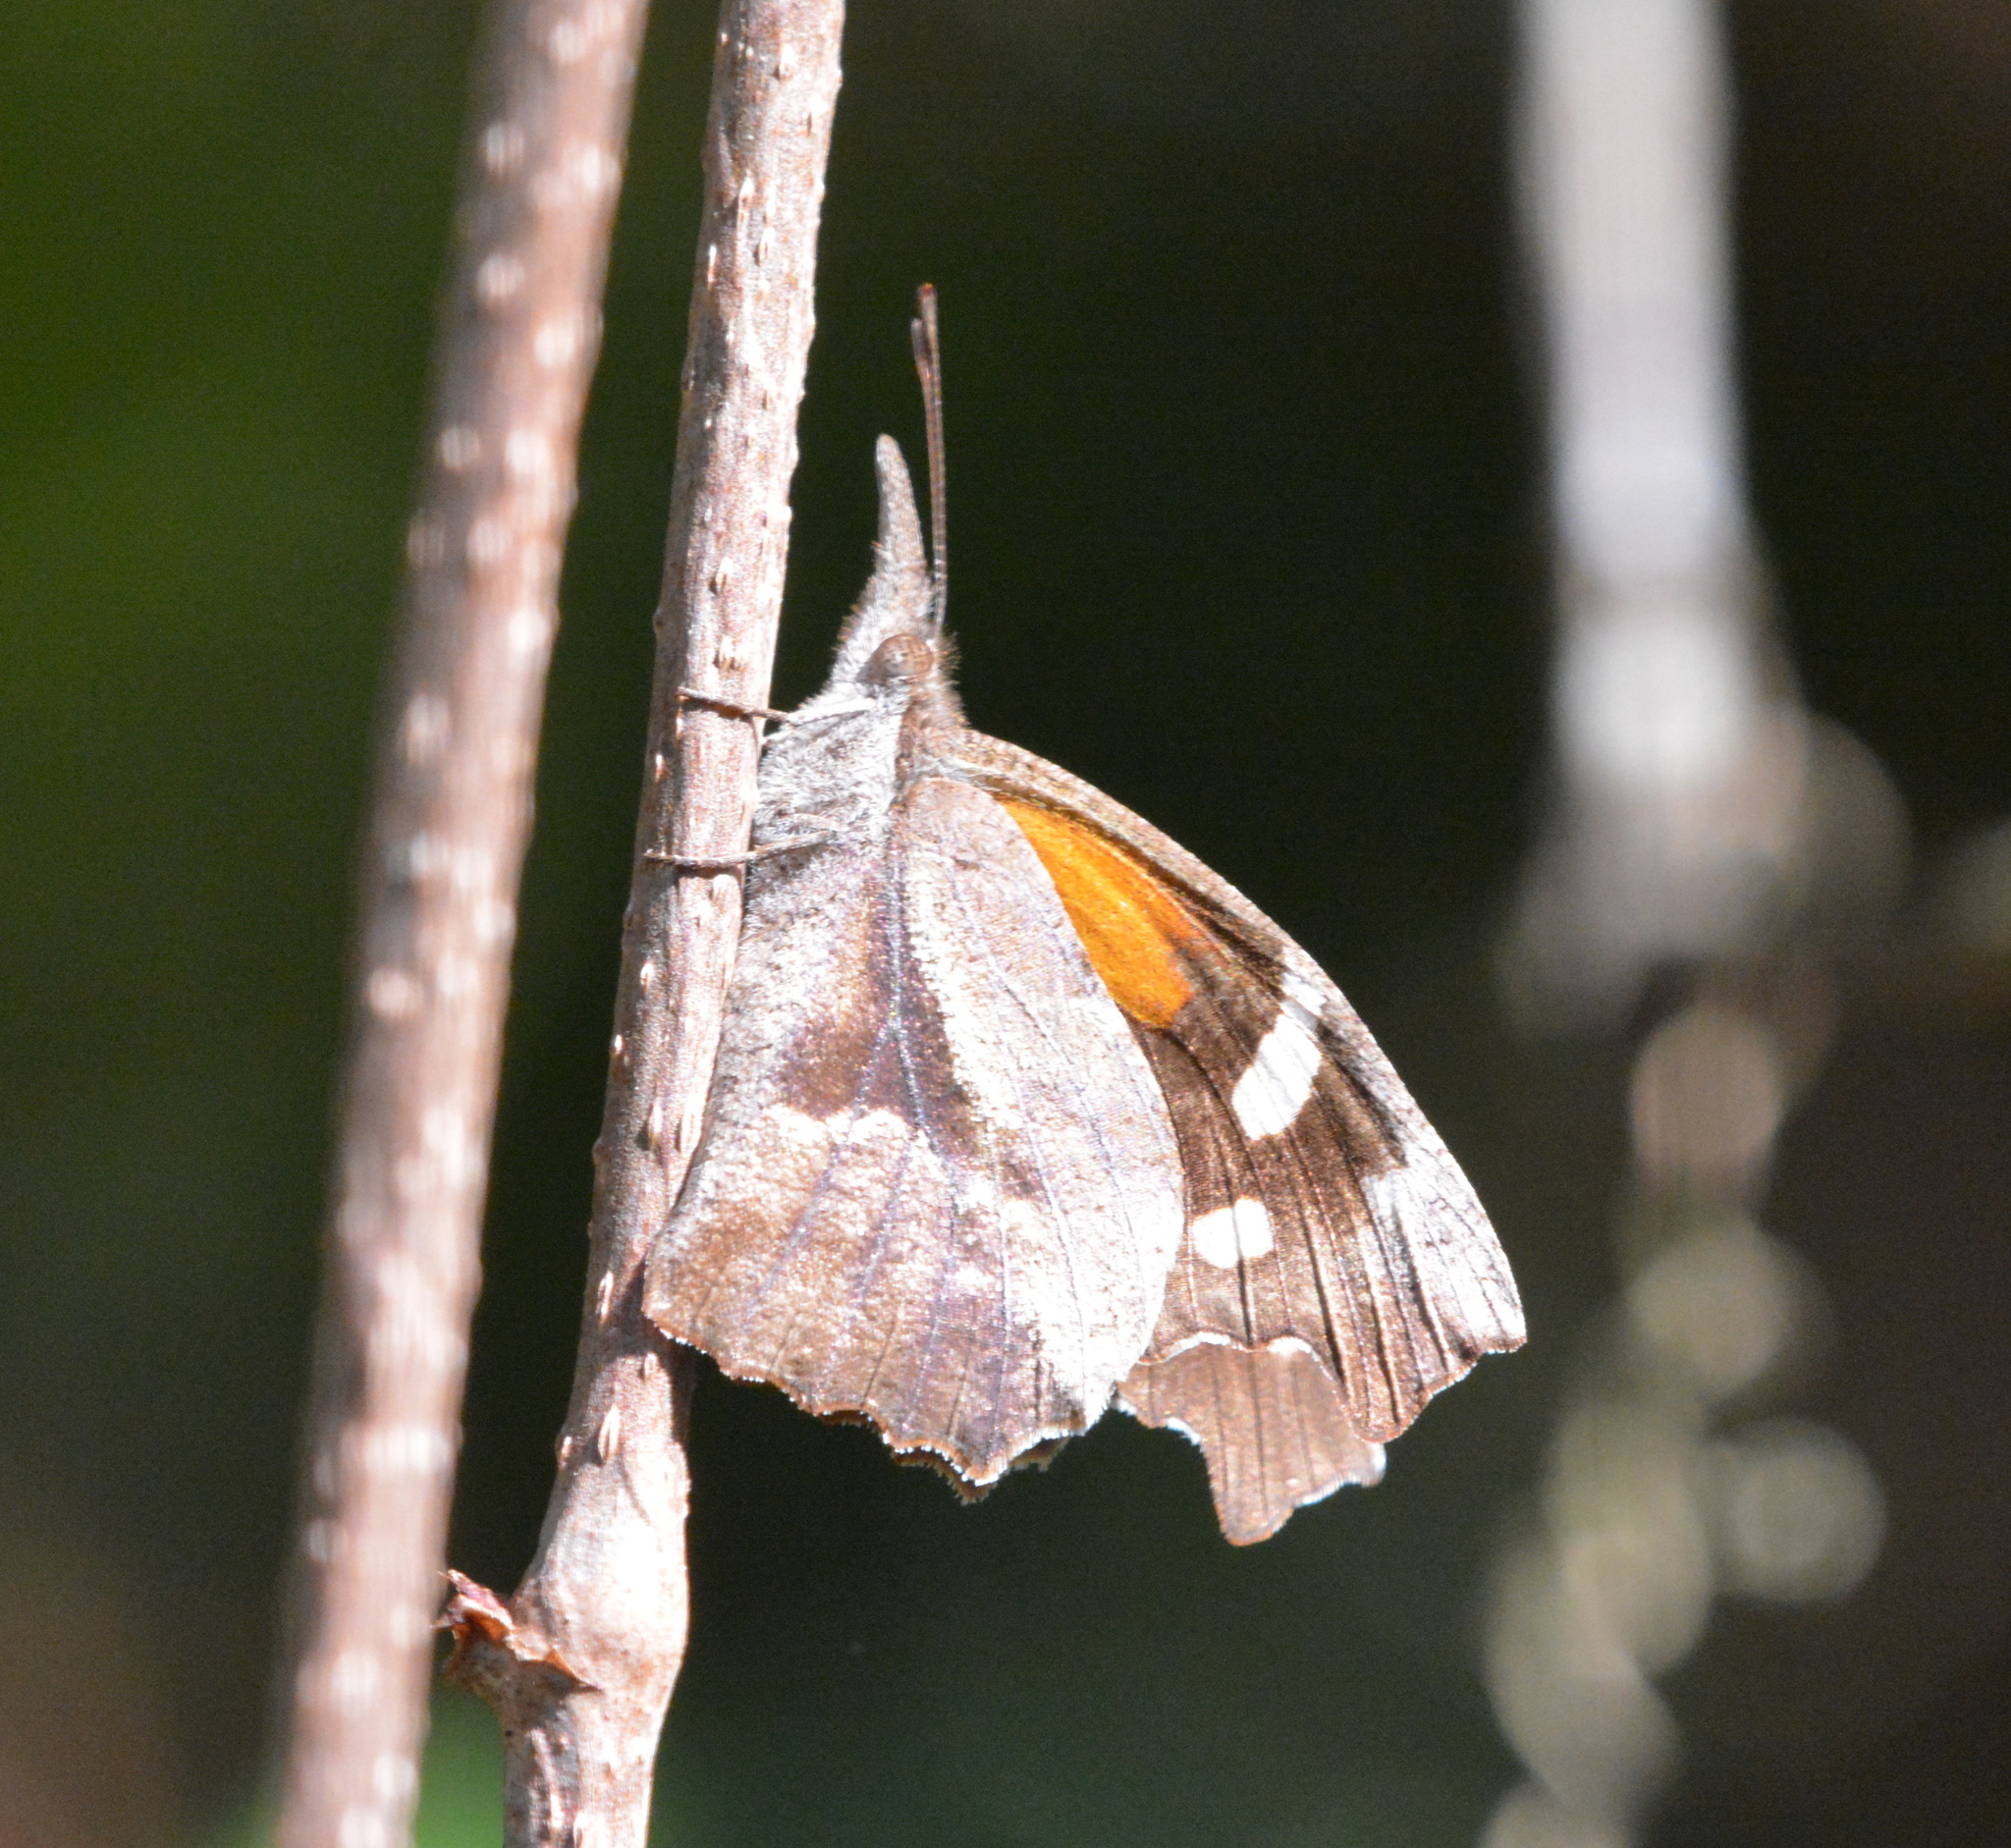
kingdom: Animalia
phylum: Arthropoda
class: Insecta
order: Lepidoptera
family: Nymphalidae
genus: Libytheana
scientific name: Libytheana carinenta
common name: American snout
